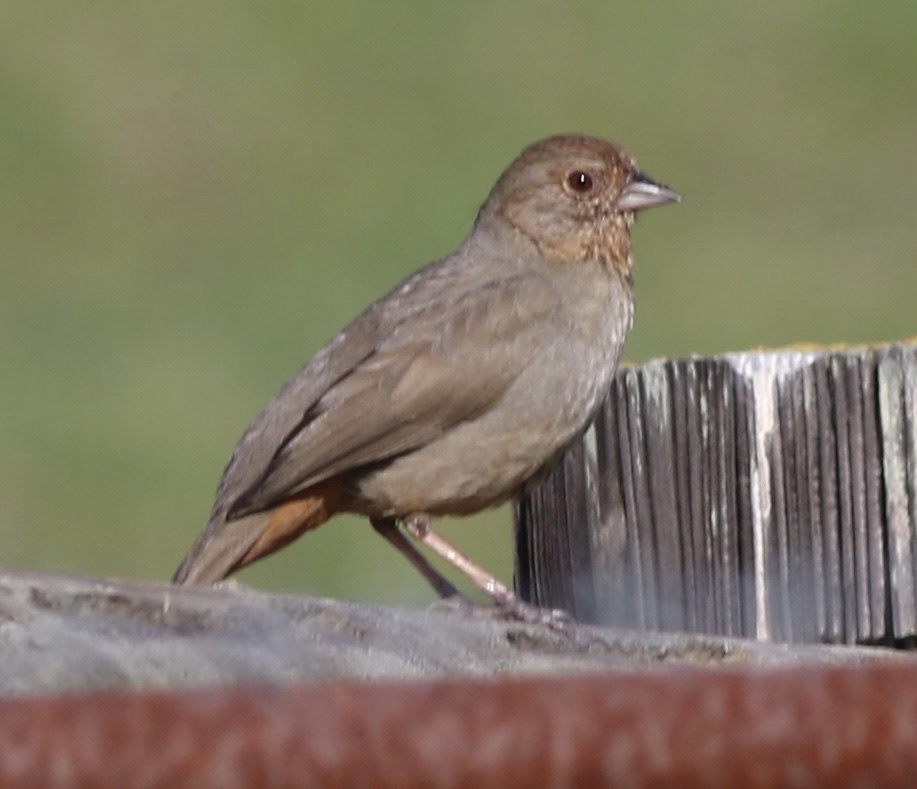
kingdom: Animalia
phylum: Chordata
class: Aves
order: Passeriformes
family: Passerellidae
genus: Melozone
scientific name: Melozone crissalis
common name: California towhee
